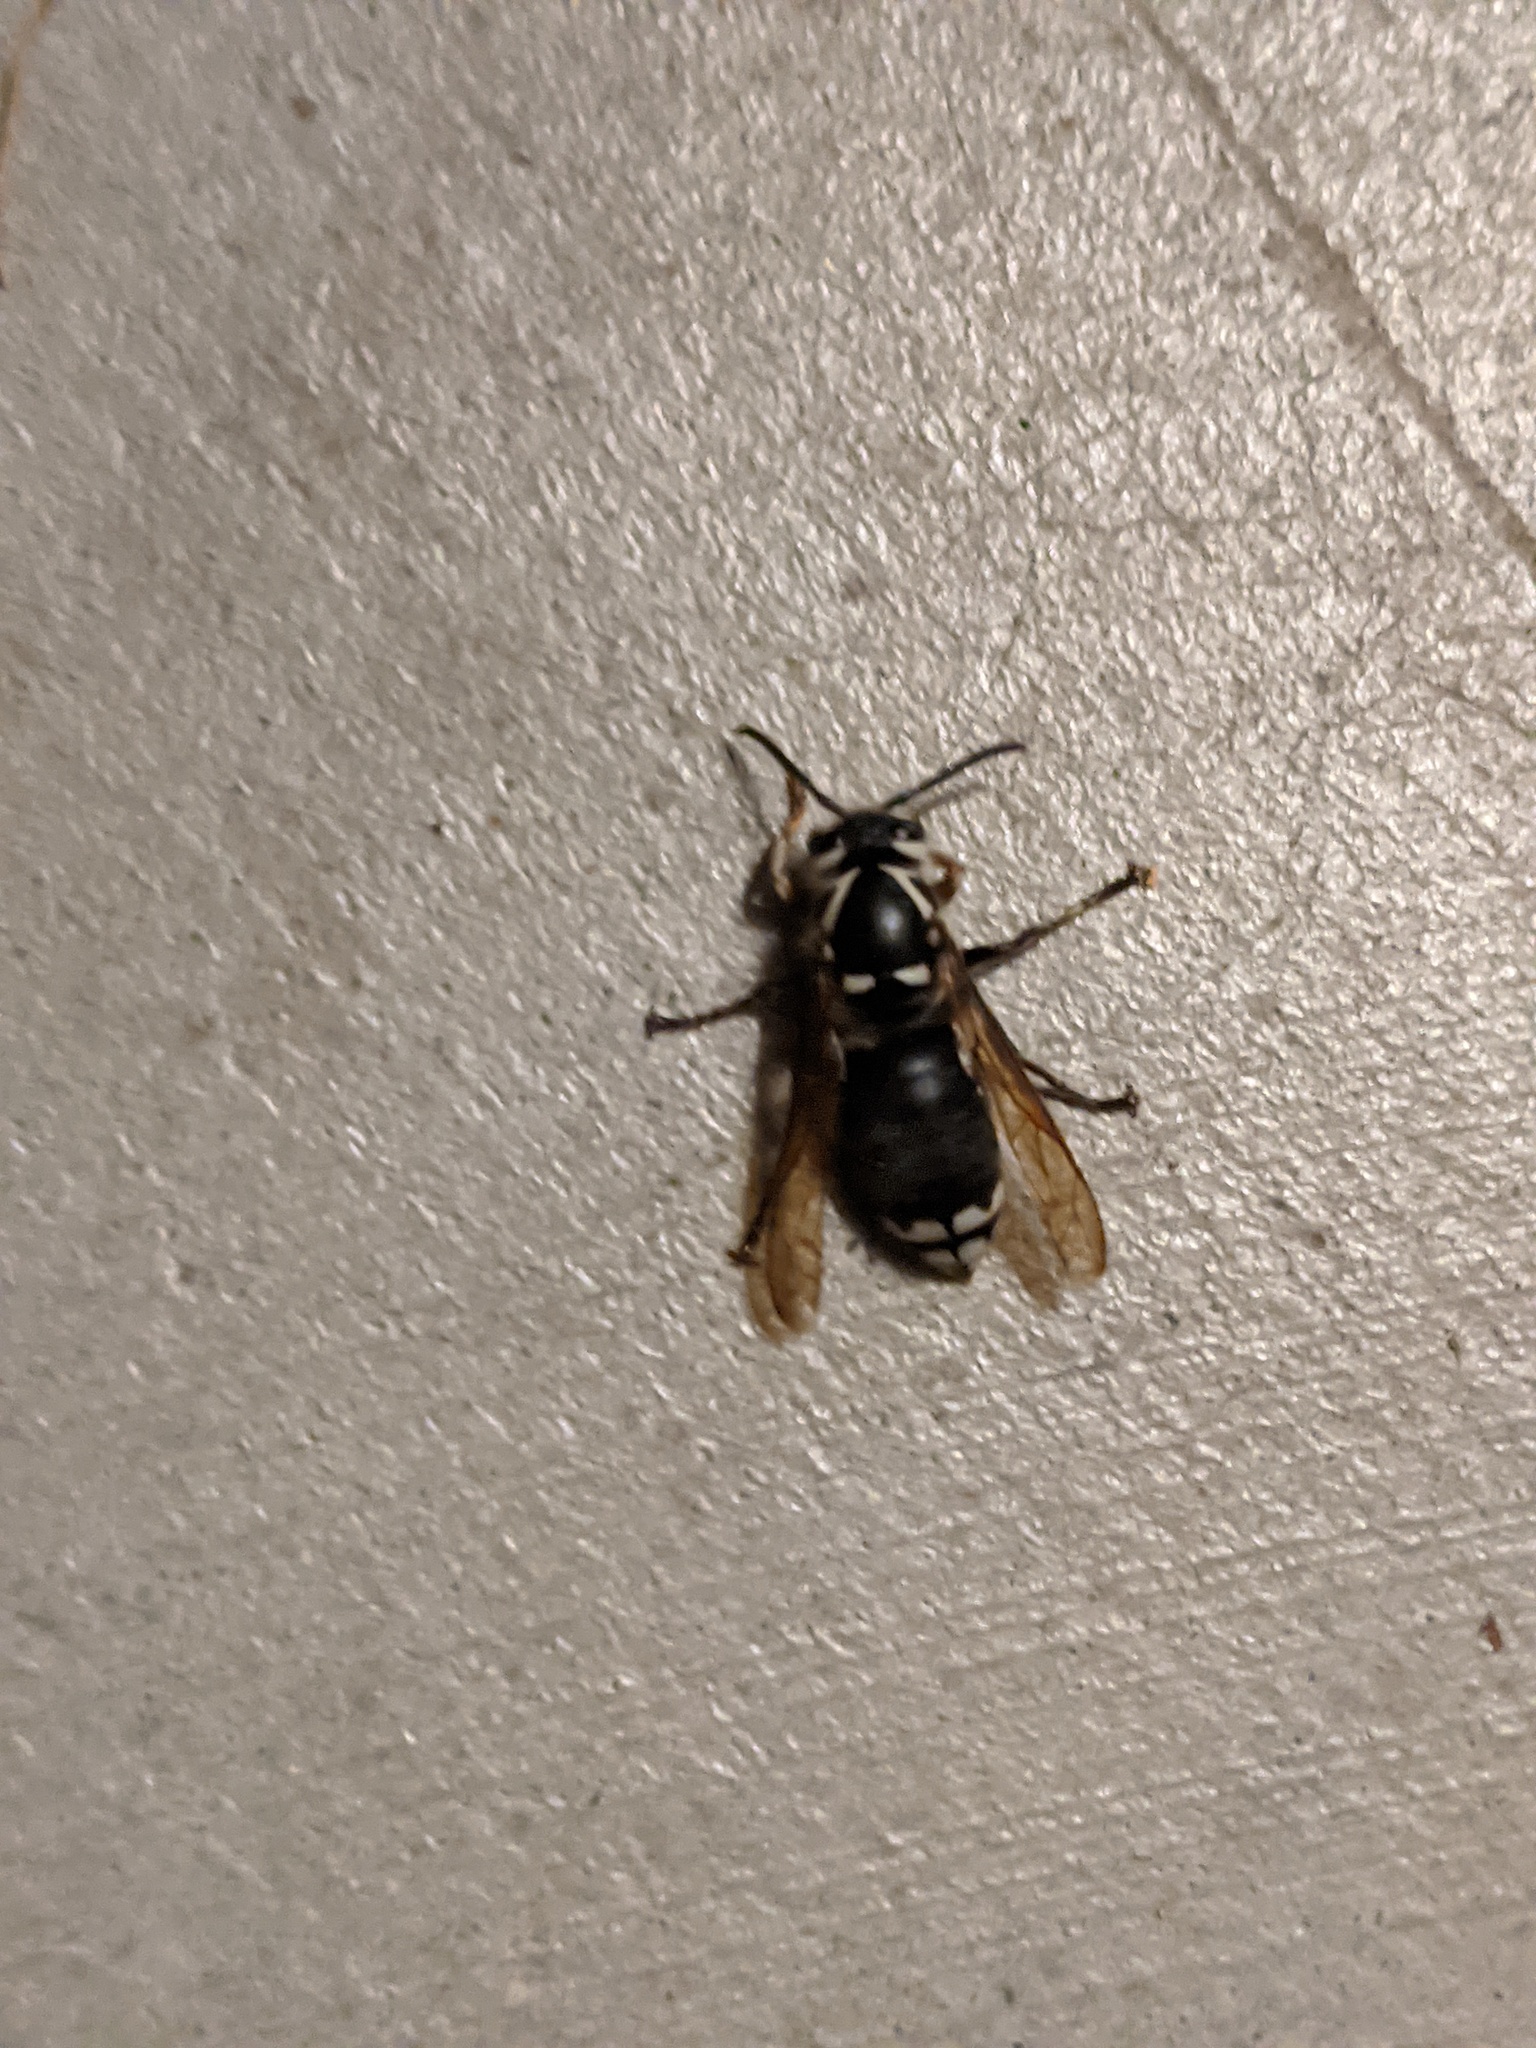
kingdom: Animalia
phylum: Arthropoda
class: Insecta
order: Hymenoptera
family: Vespidae
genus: Dolichovespula
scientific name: Dolichovespula maculata
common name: Bald-faced hornet
